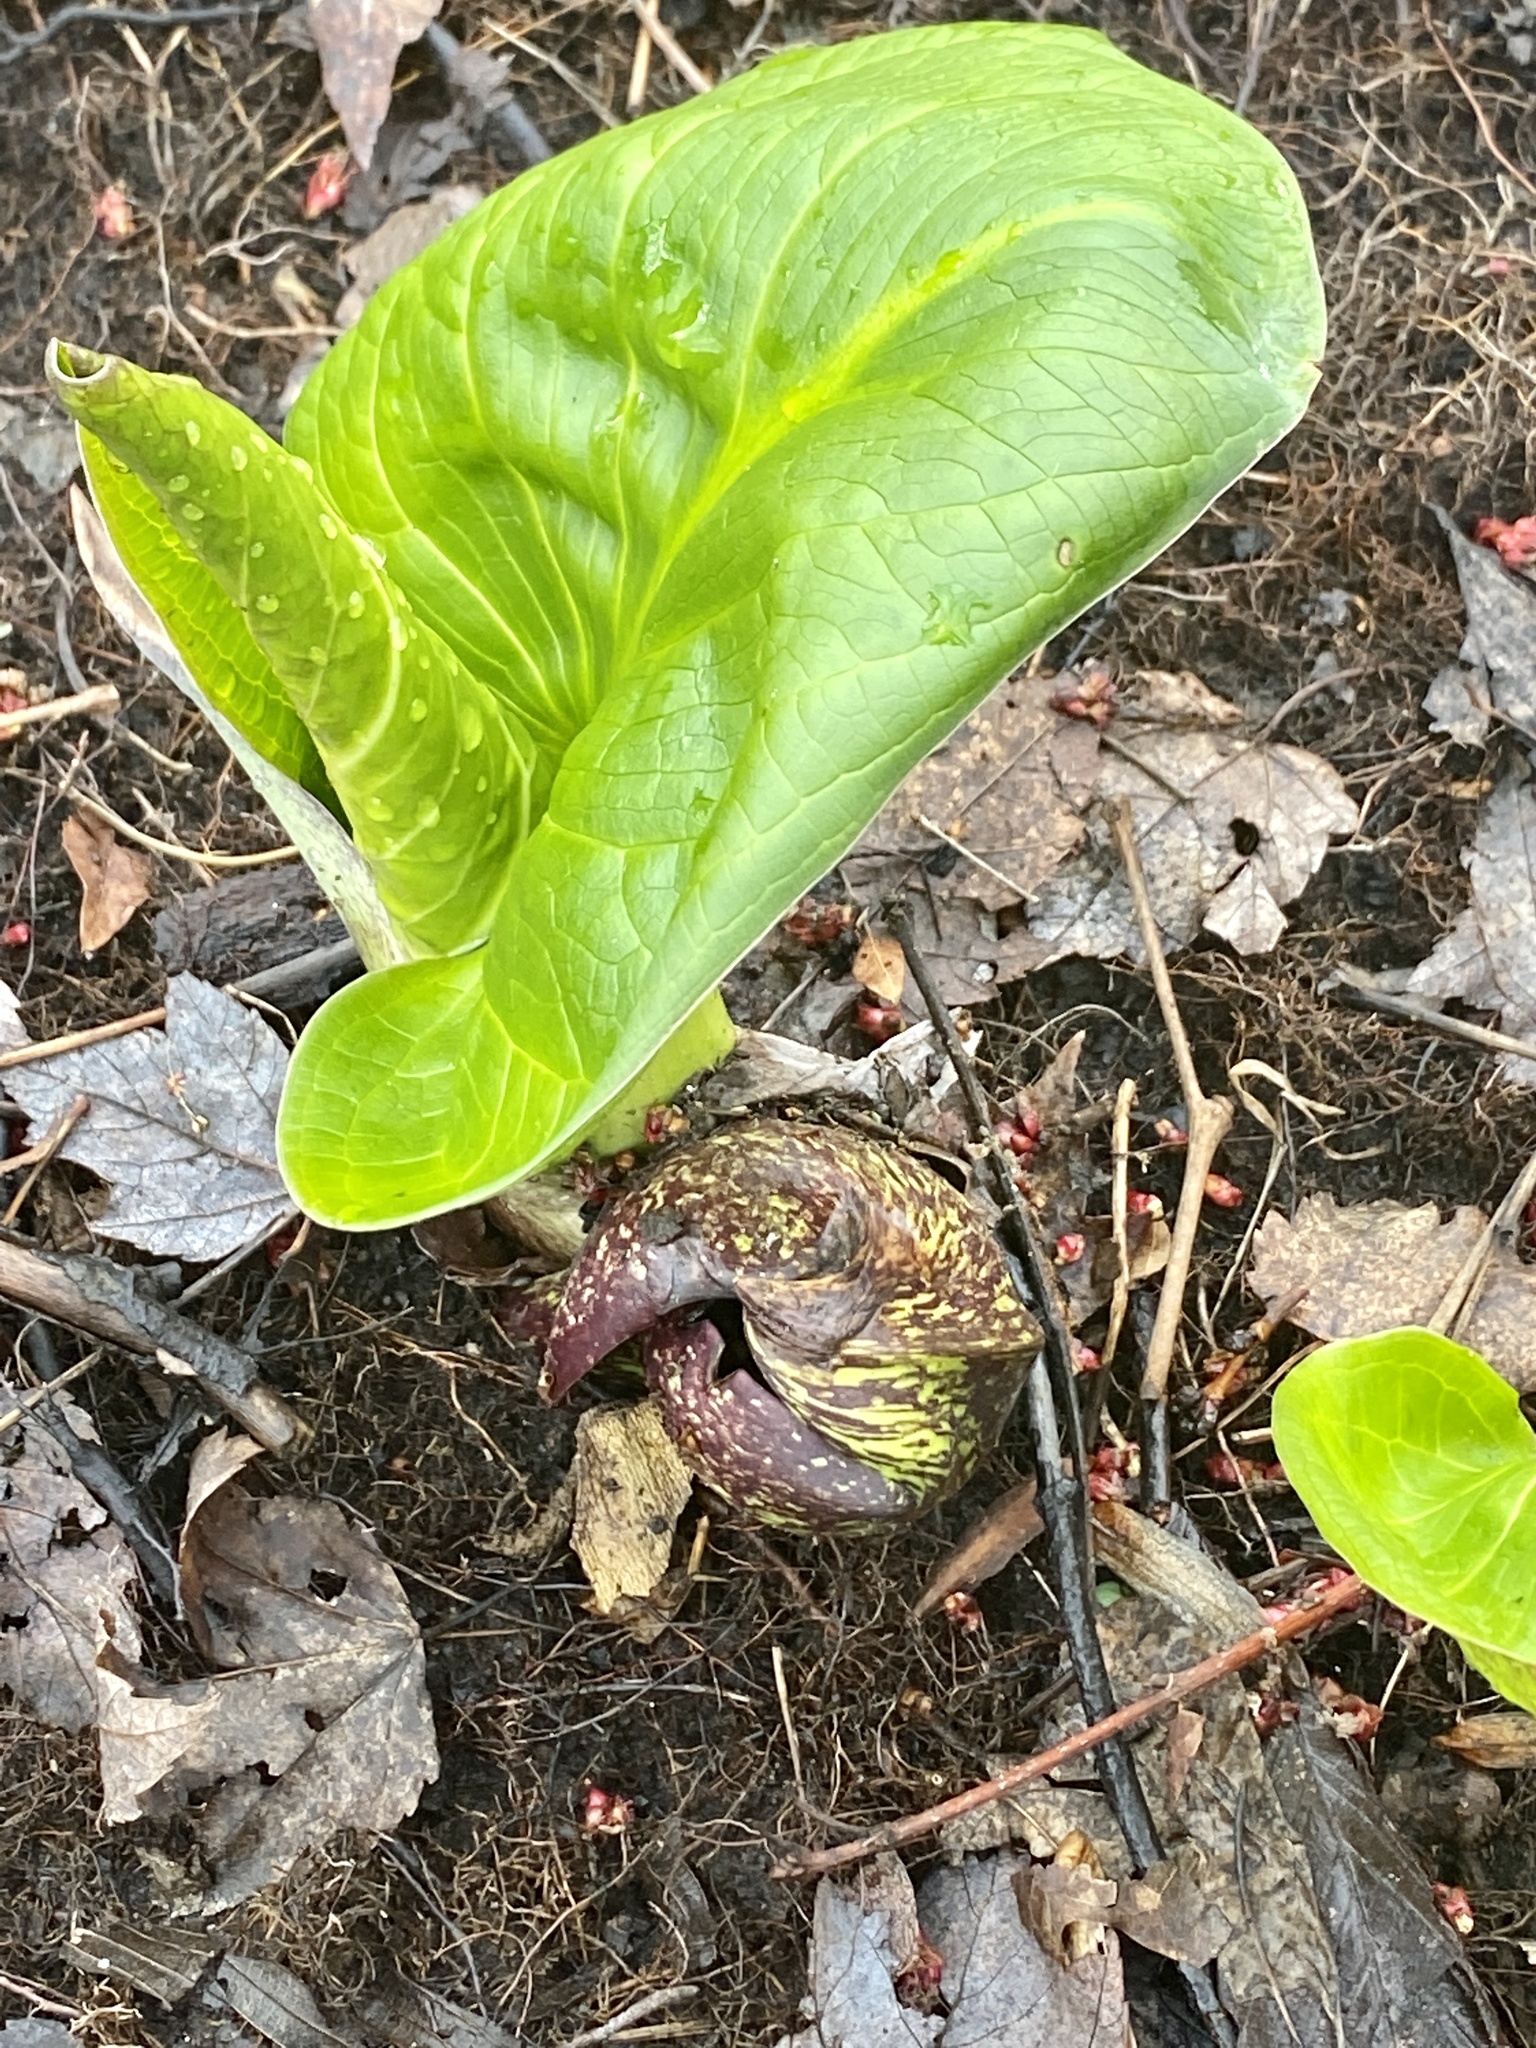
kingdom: Plantae
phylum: Tracheophyta
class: Liliopsida
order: Alismatales
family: Araceae
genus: Symplocarpus
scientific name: Symplocarpus foetidus
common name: Eastern skunk cabbage
